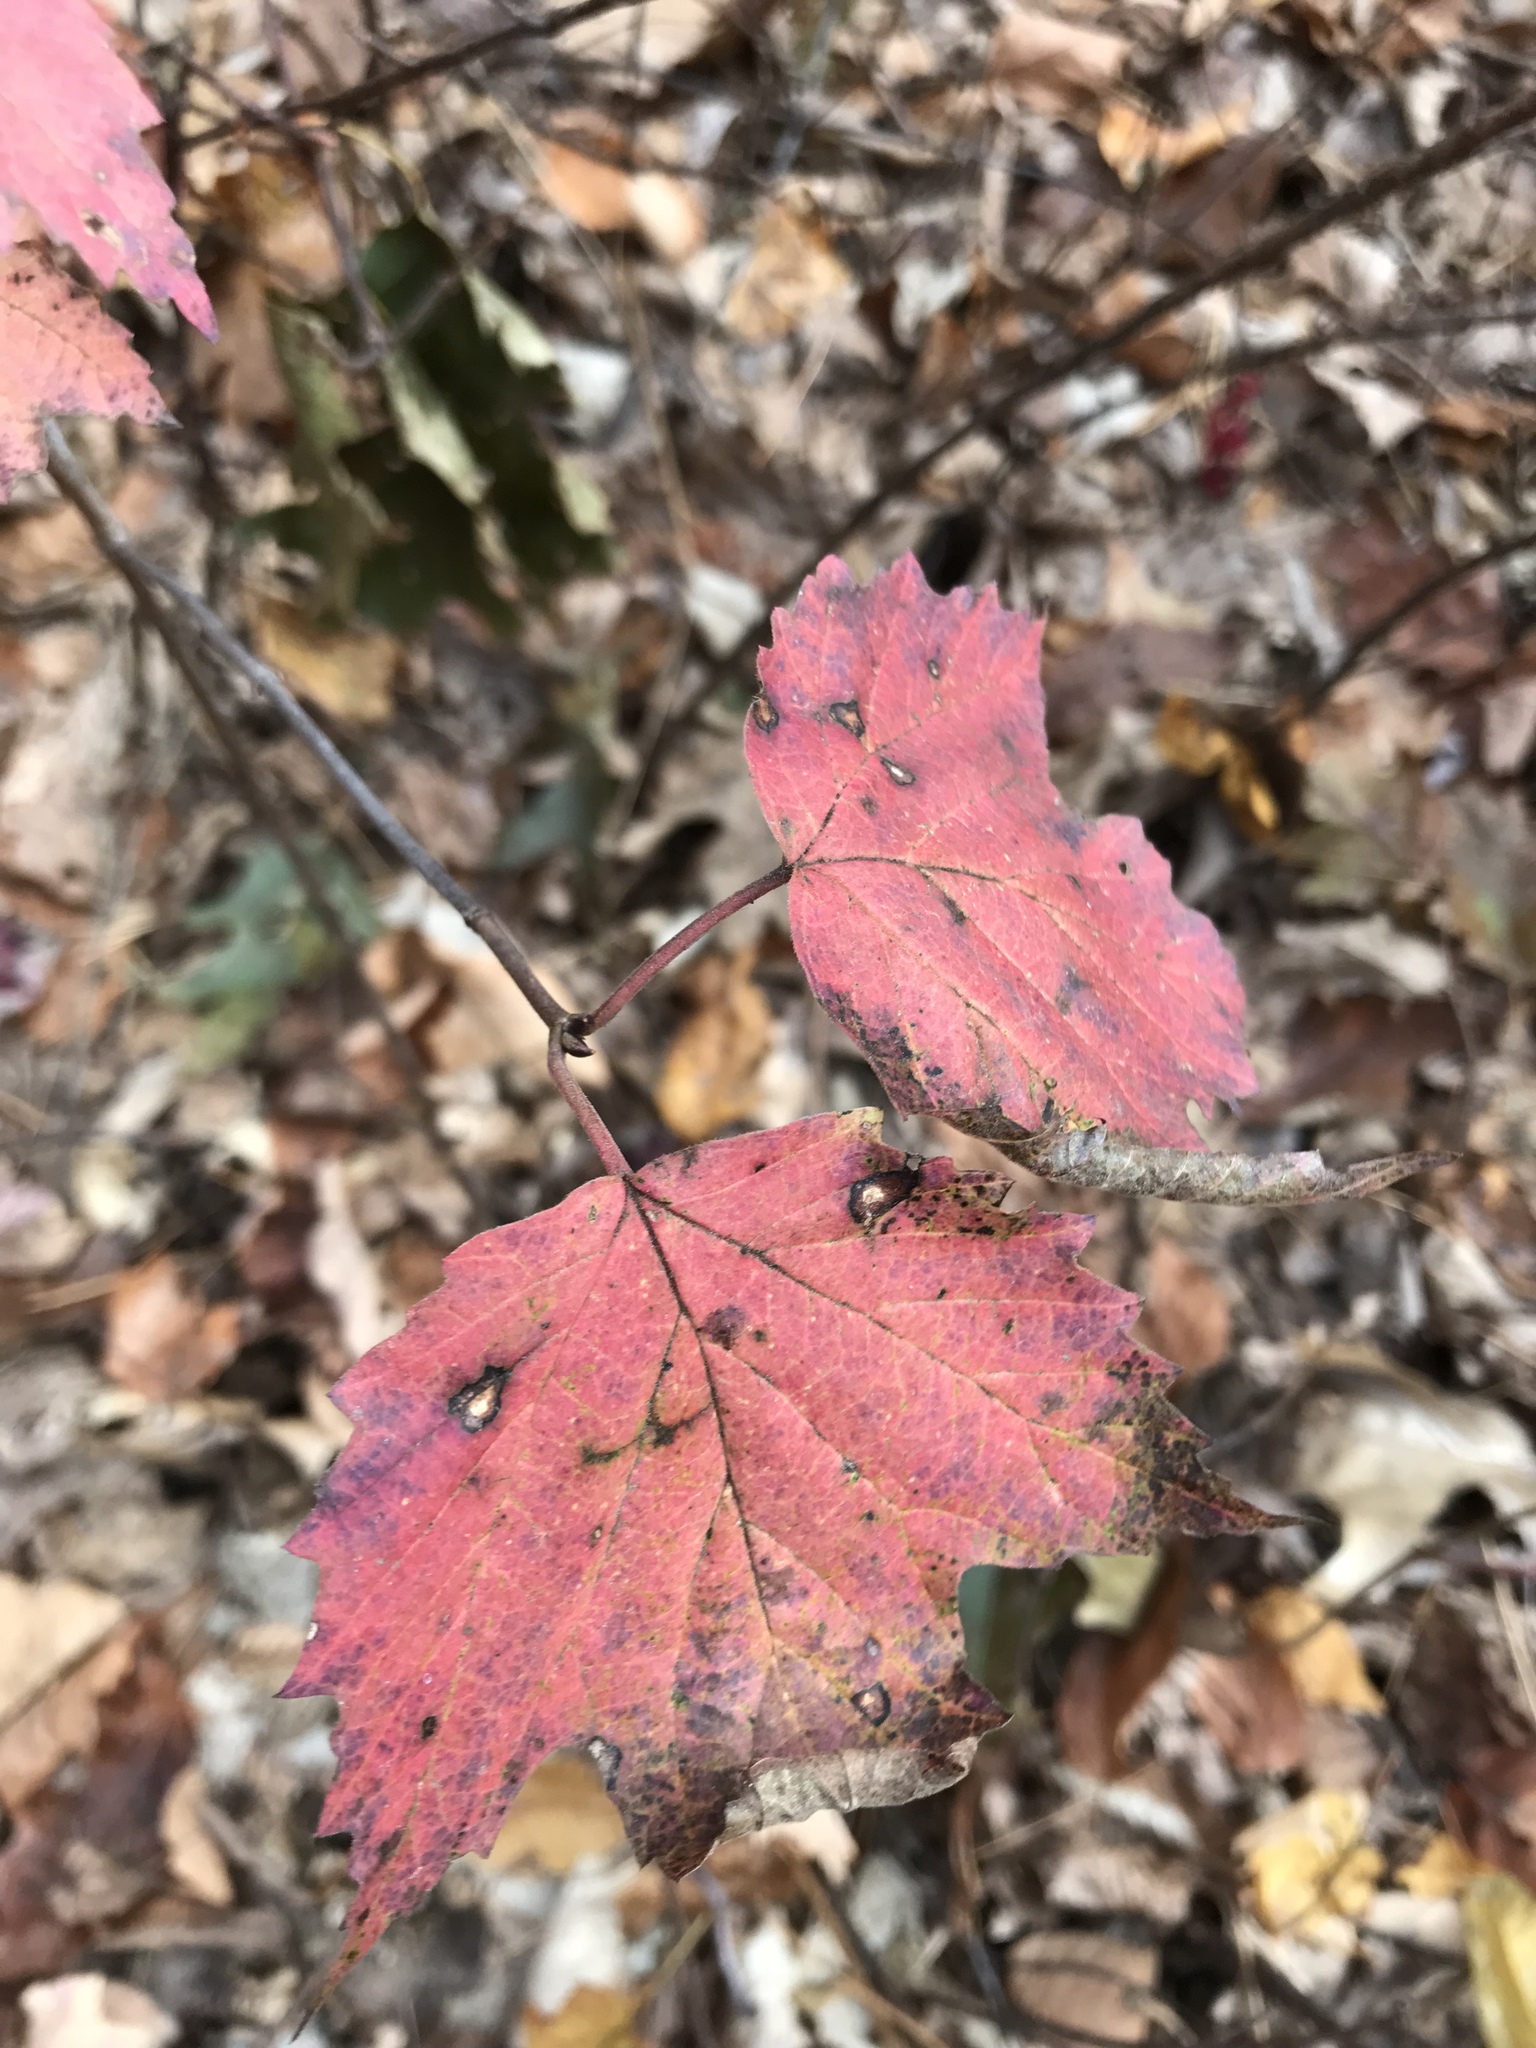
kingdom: Plantae
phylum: Tracheophyta
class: Magnoliopsida
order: Dipsacales
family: Viburnaceae
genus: Viburnum
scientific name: Viburnum acerifolium
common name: Dockmackie
